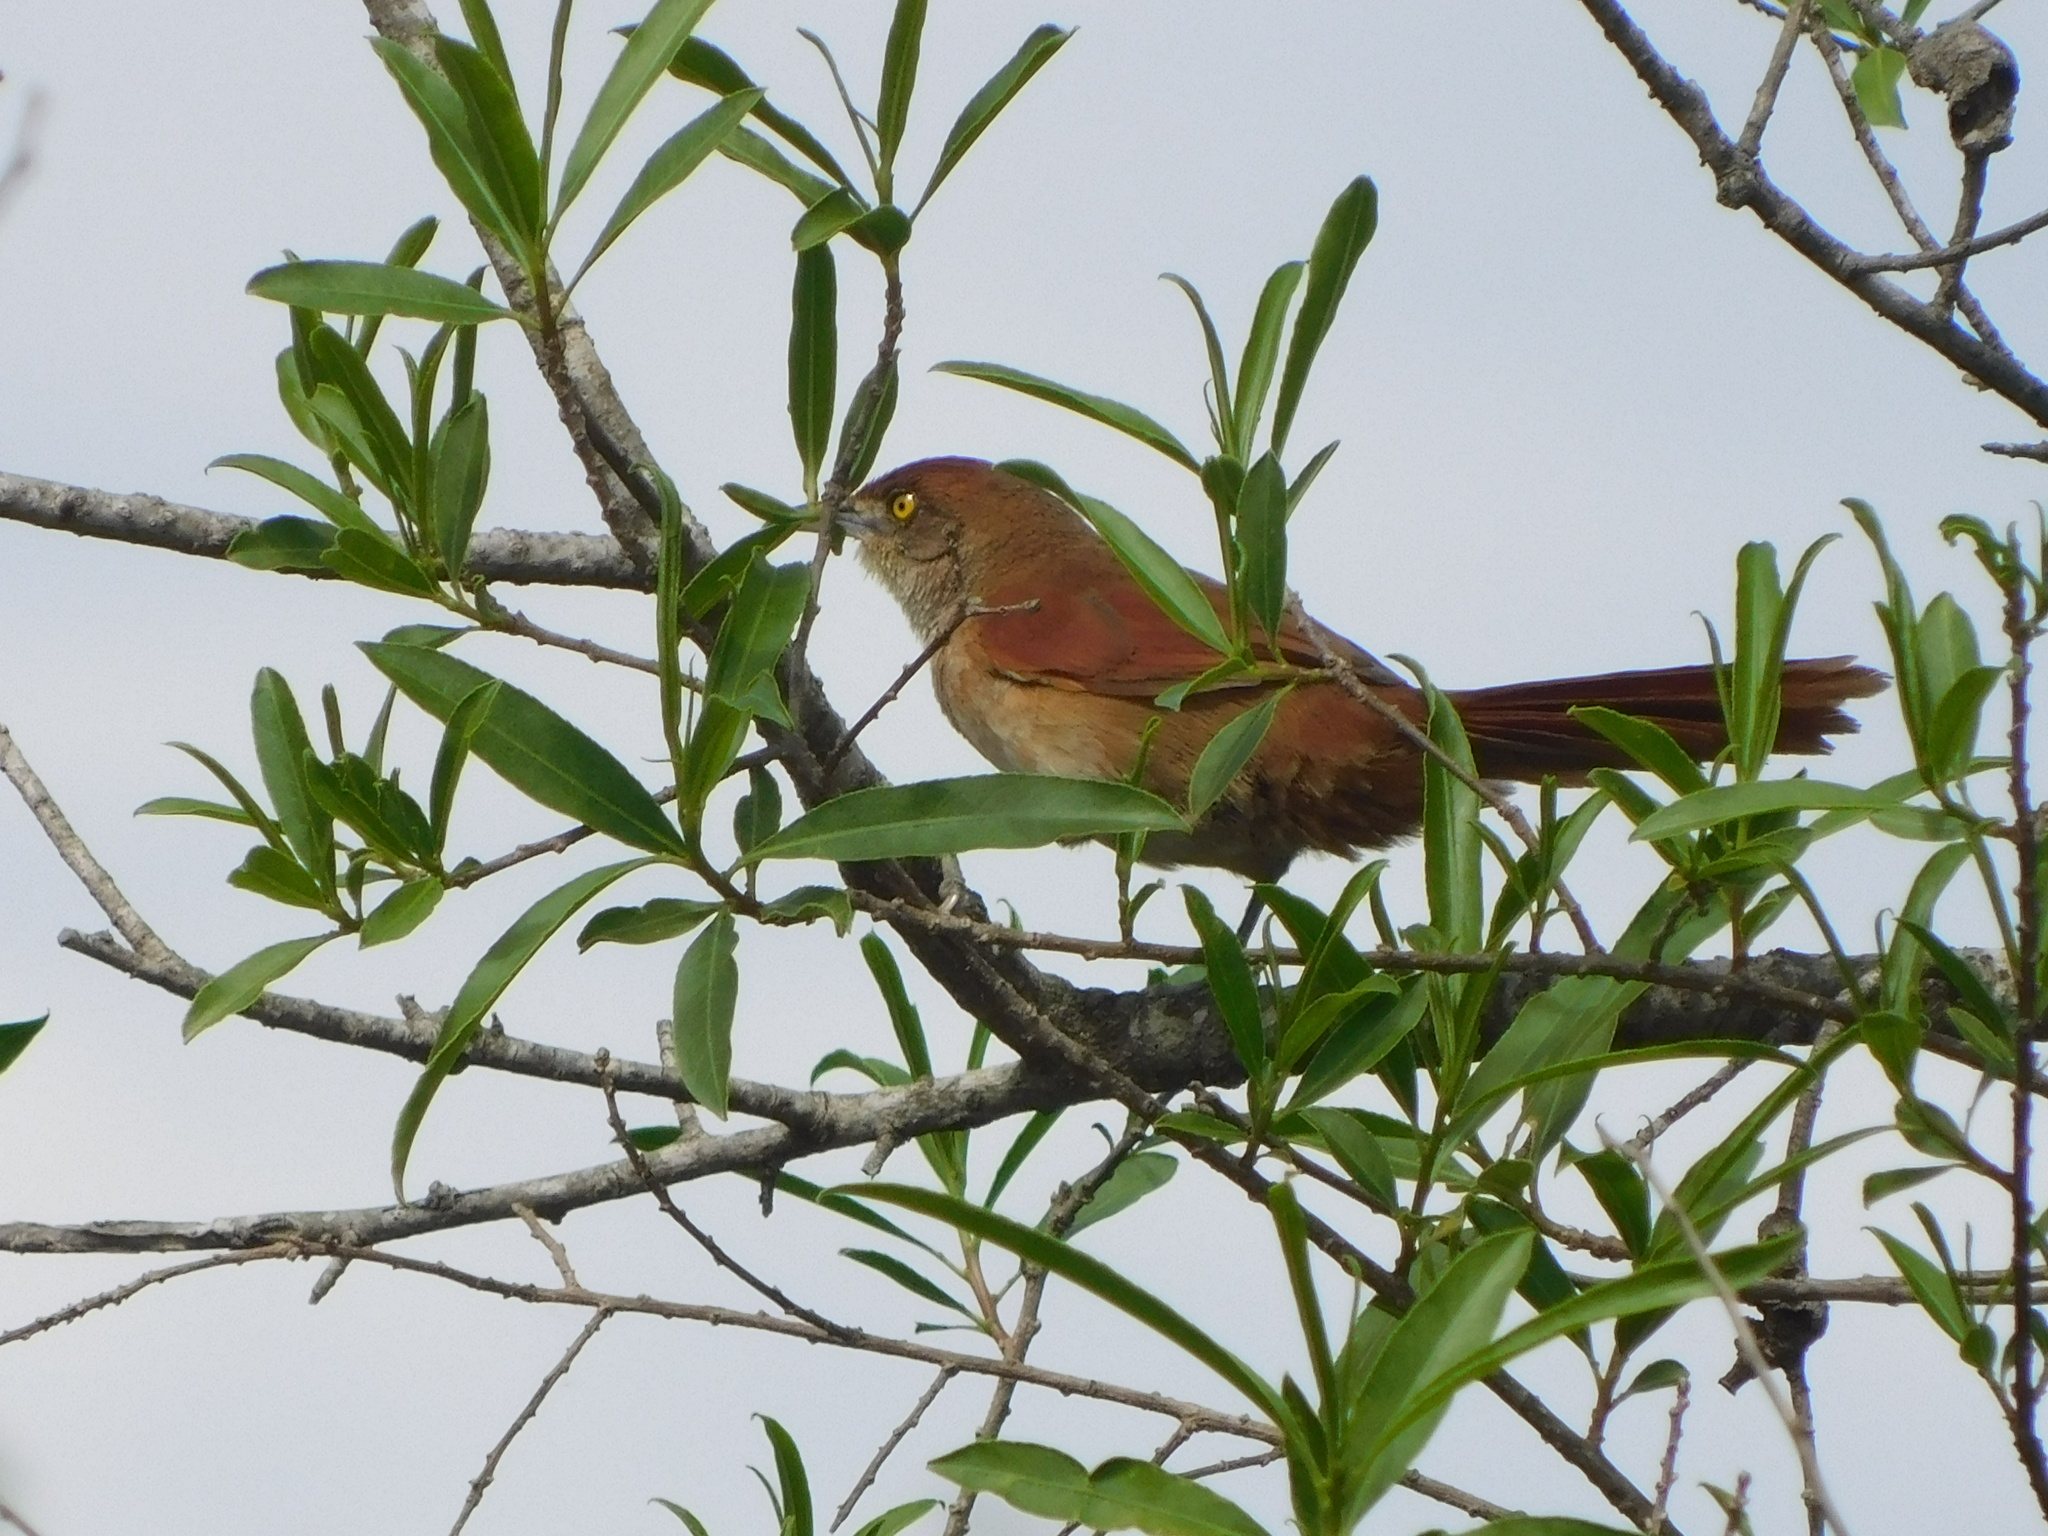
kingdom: Animalia
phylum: Chordata
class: Aves
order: Passeriformes
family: Furnariidae
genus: Phacellodomus
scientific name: Phacellodomus ruber
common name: Greater thornbird
